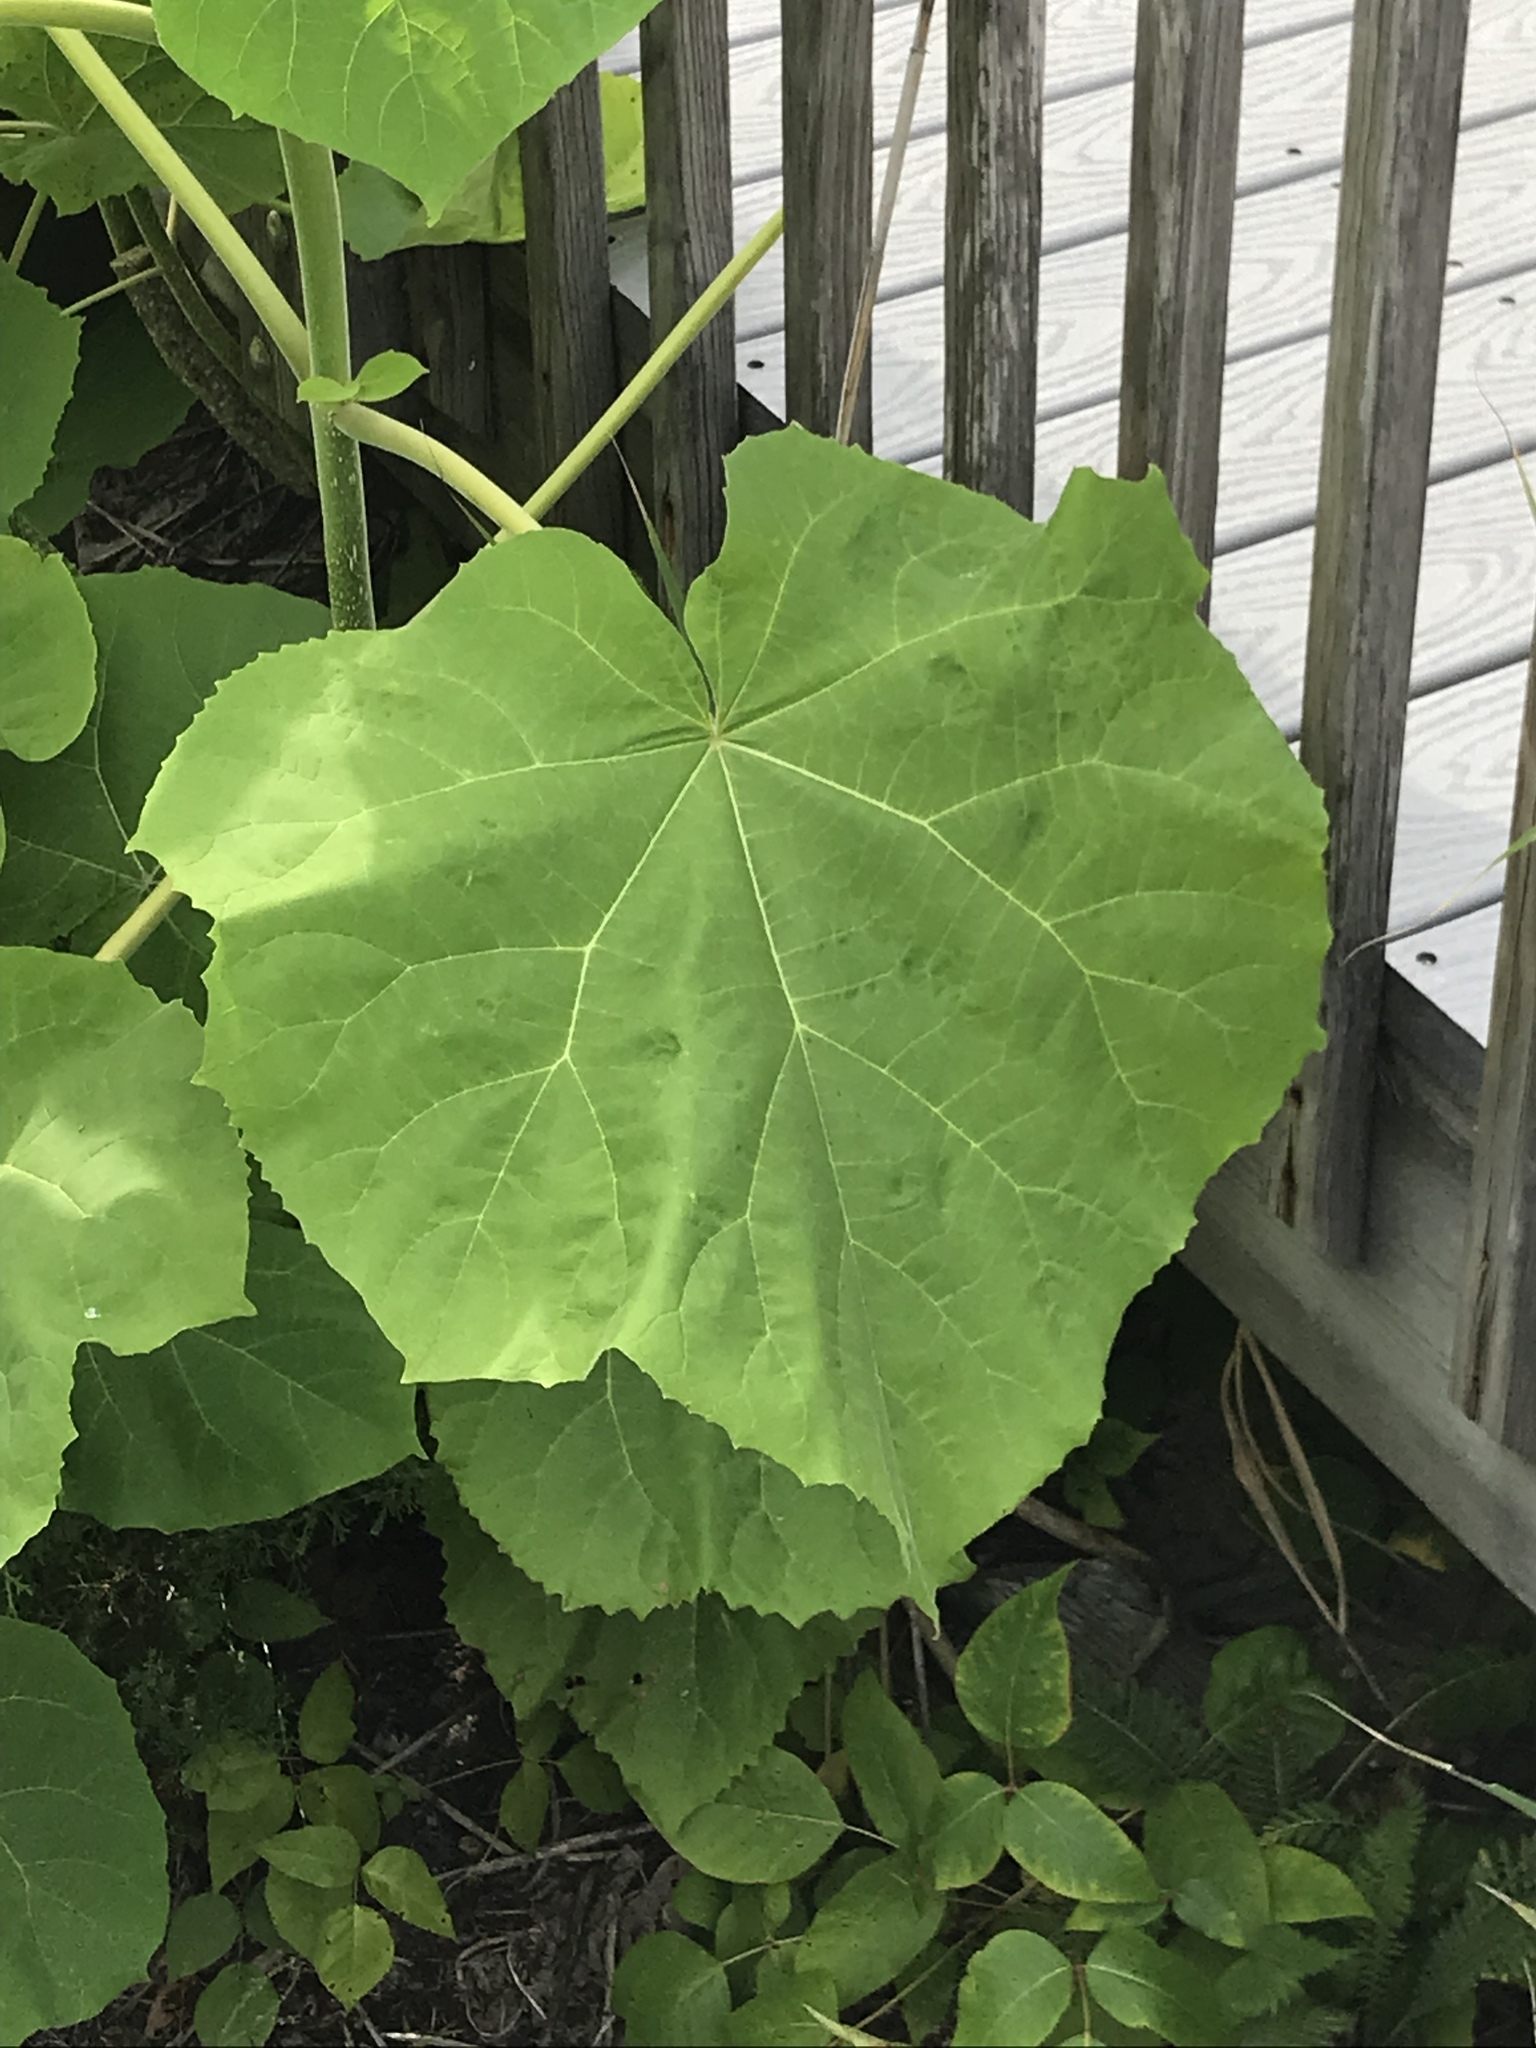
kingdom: Plantae
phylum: Tracheophyta
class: Magnoliopsida
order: Lamiales
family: Paulowniaceae
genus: Paulownia
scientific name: Paulownia tomentosa
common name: Foxglove-tree
